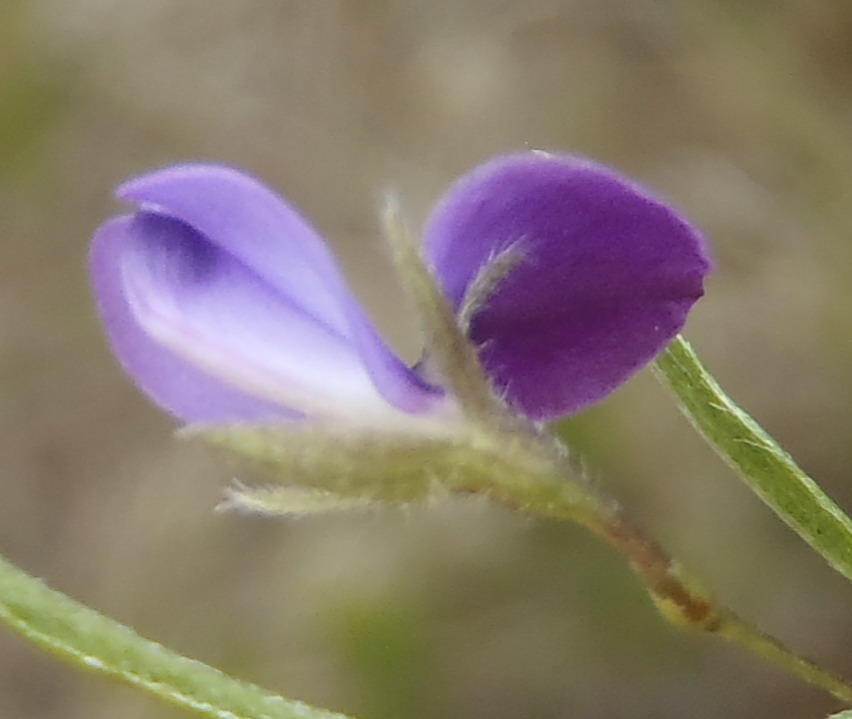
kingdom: Plantae
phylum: Tracheophyta
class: Magnoliopsida
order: Fabales
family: Fabaceae
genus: Psoralea
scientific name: Psoralea plauta
